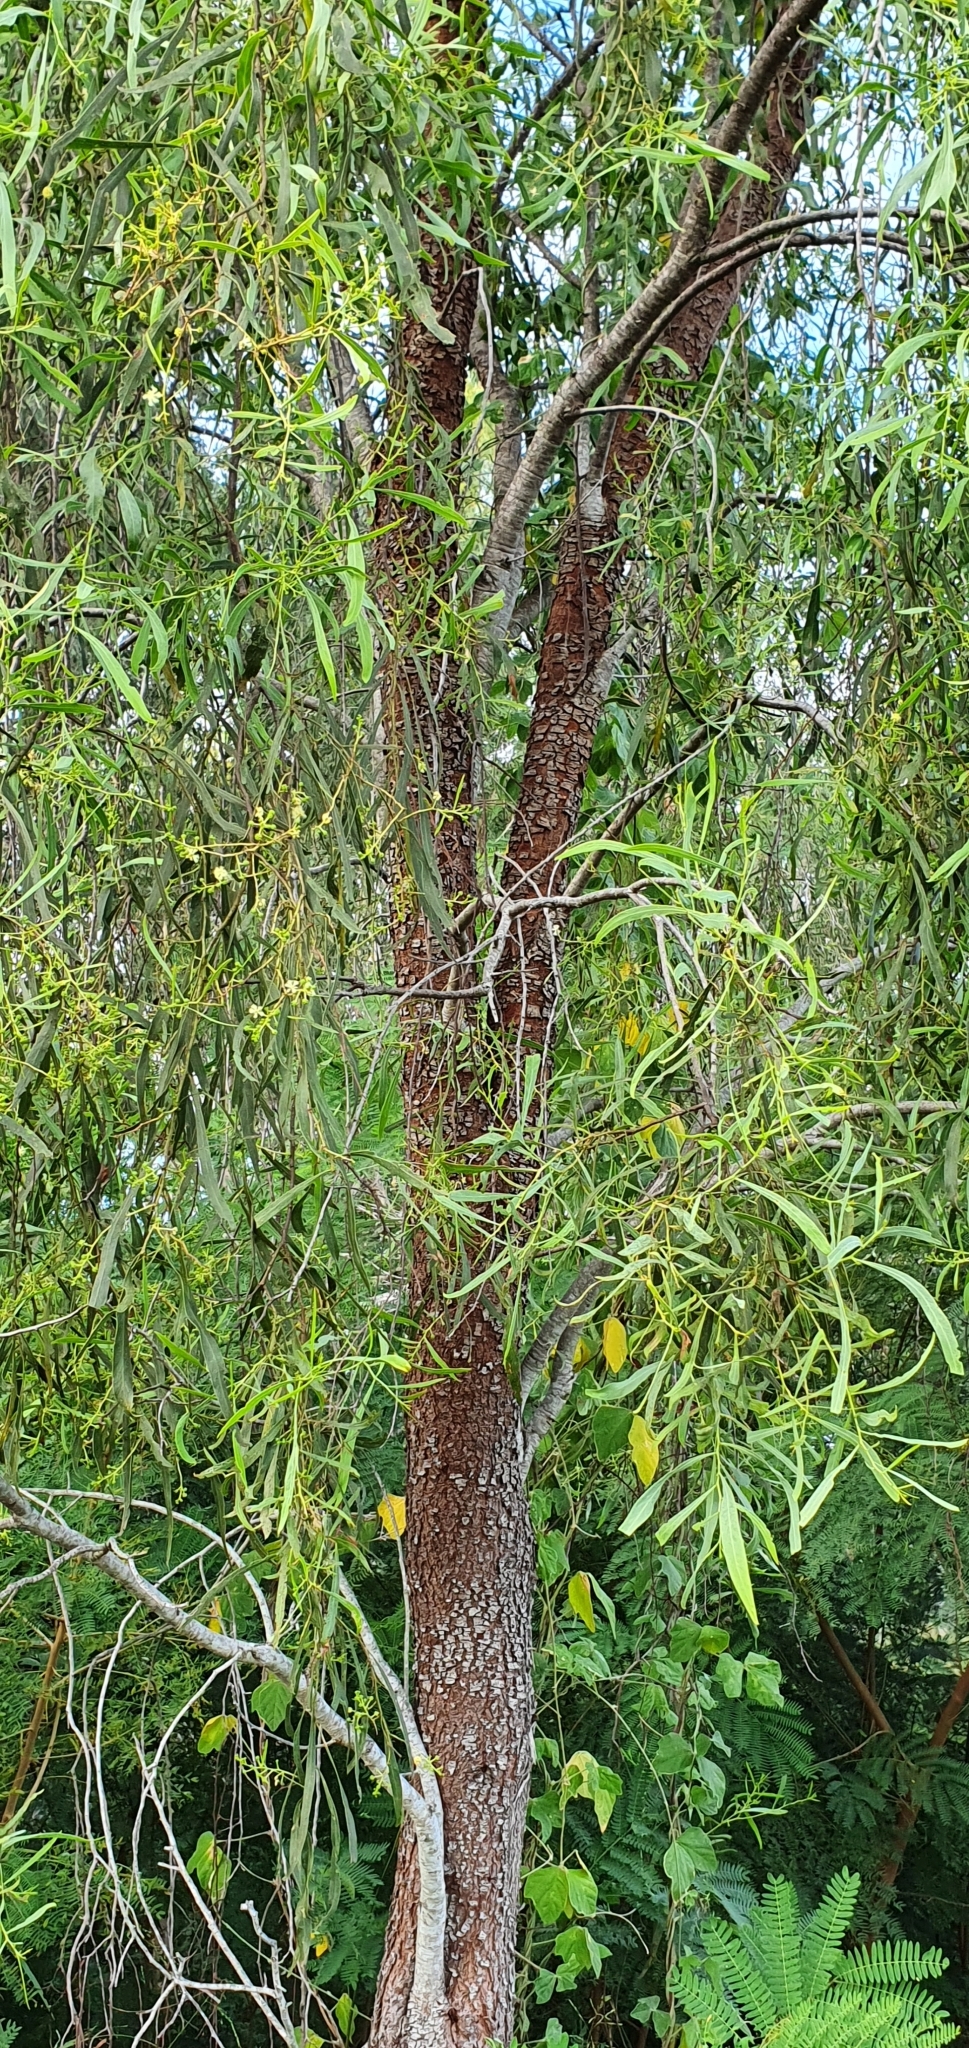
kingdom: Plantae
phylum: Tracheophyta
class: Magnoliopsida
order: Fabales
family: Fabaceae
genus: Acacia
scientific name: Acacia salicina
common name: Broughton willow wattle
